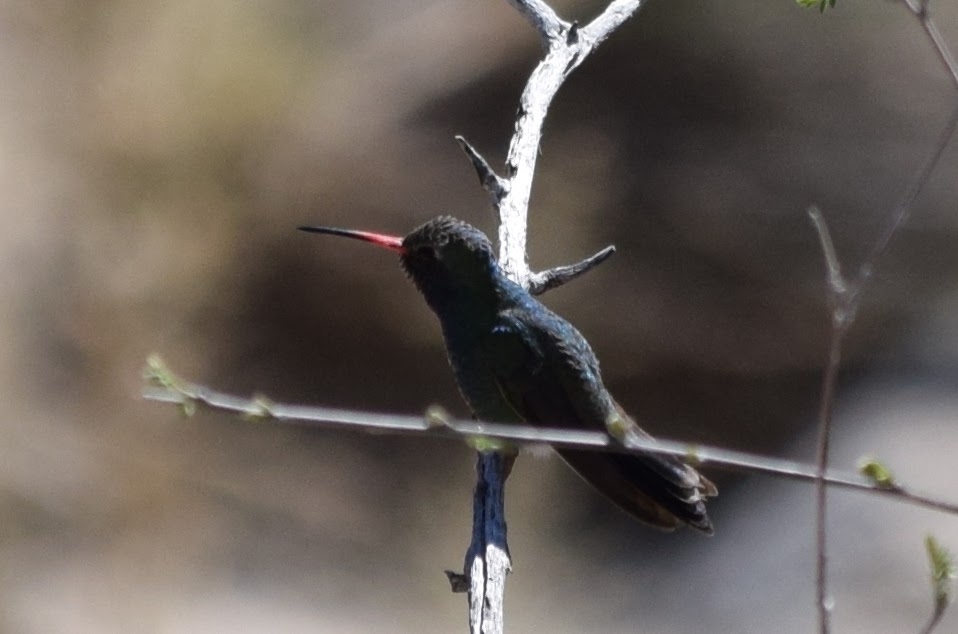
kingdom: Animalia
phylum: Chordata
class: Aves
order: Apodiformes
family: Trochilidae
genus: Cynanthus
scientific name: Cynanthus latirostris
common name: Broad-billed hummingbird
